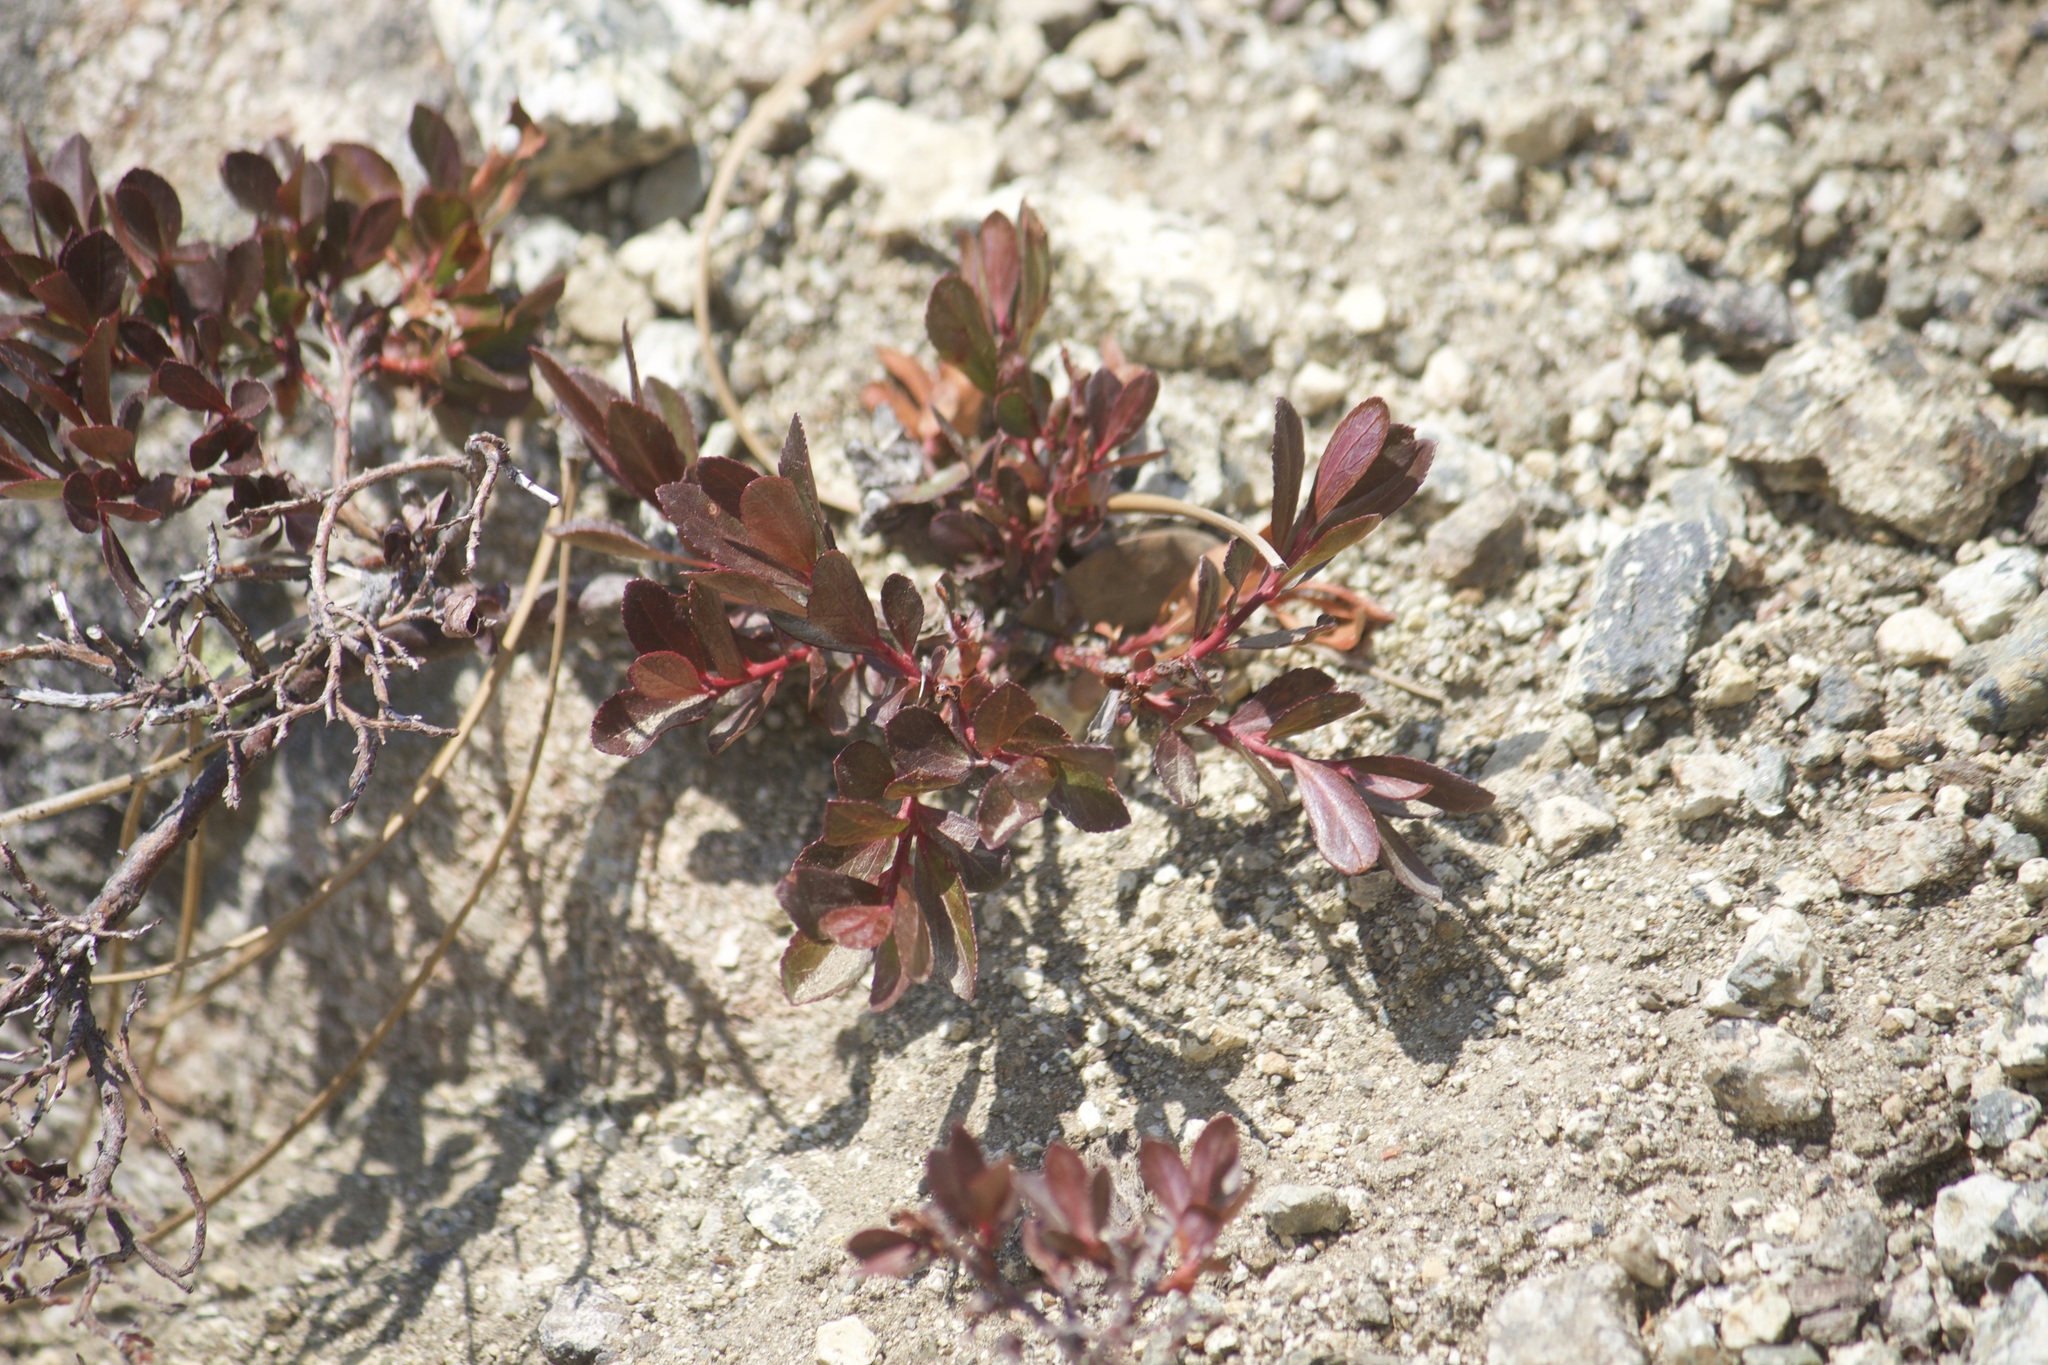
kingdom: Plantae
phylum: Tracheophyta
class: Magnoliopsida
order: Ericales
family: Ericaceae
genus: Vaccinium
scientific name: Vaccinium cespitosum
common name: Dwarf bilberry
